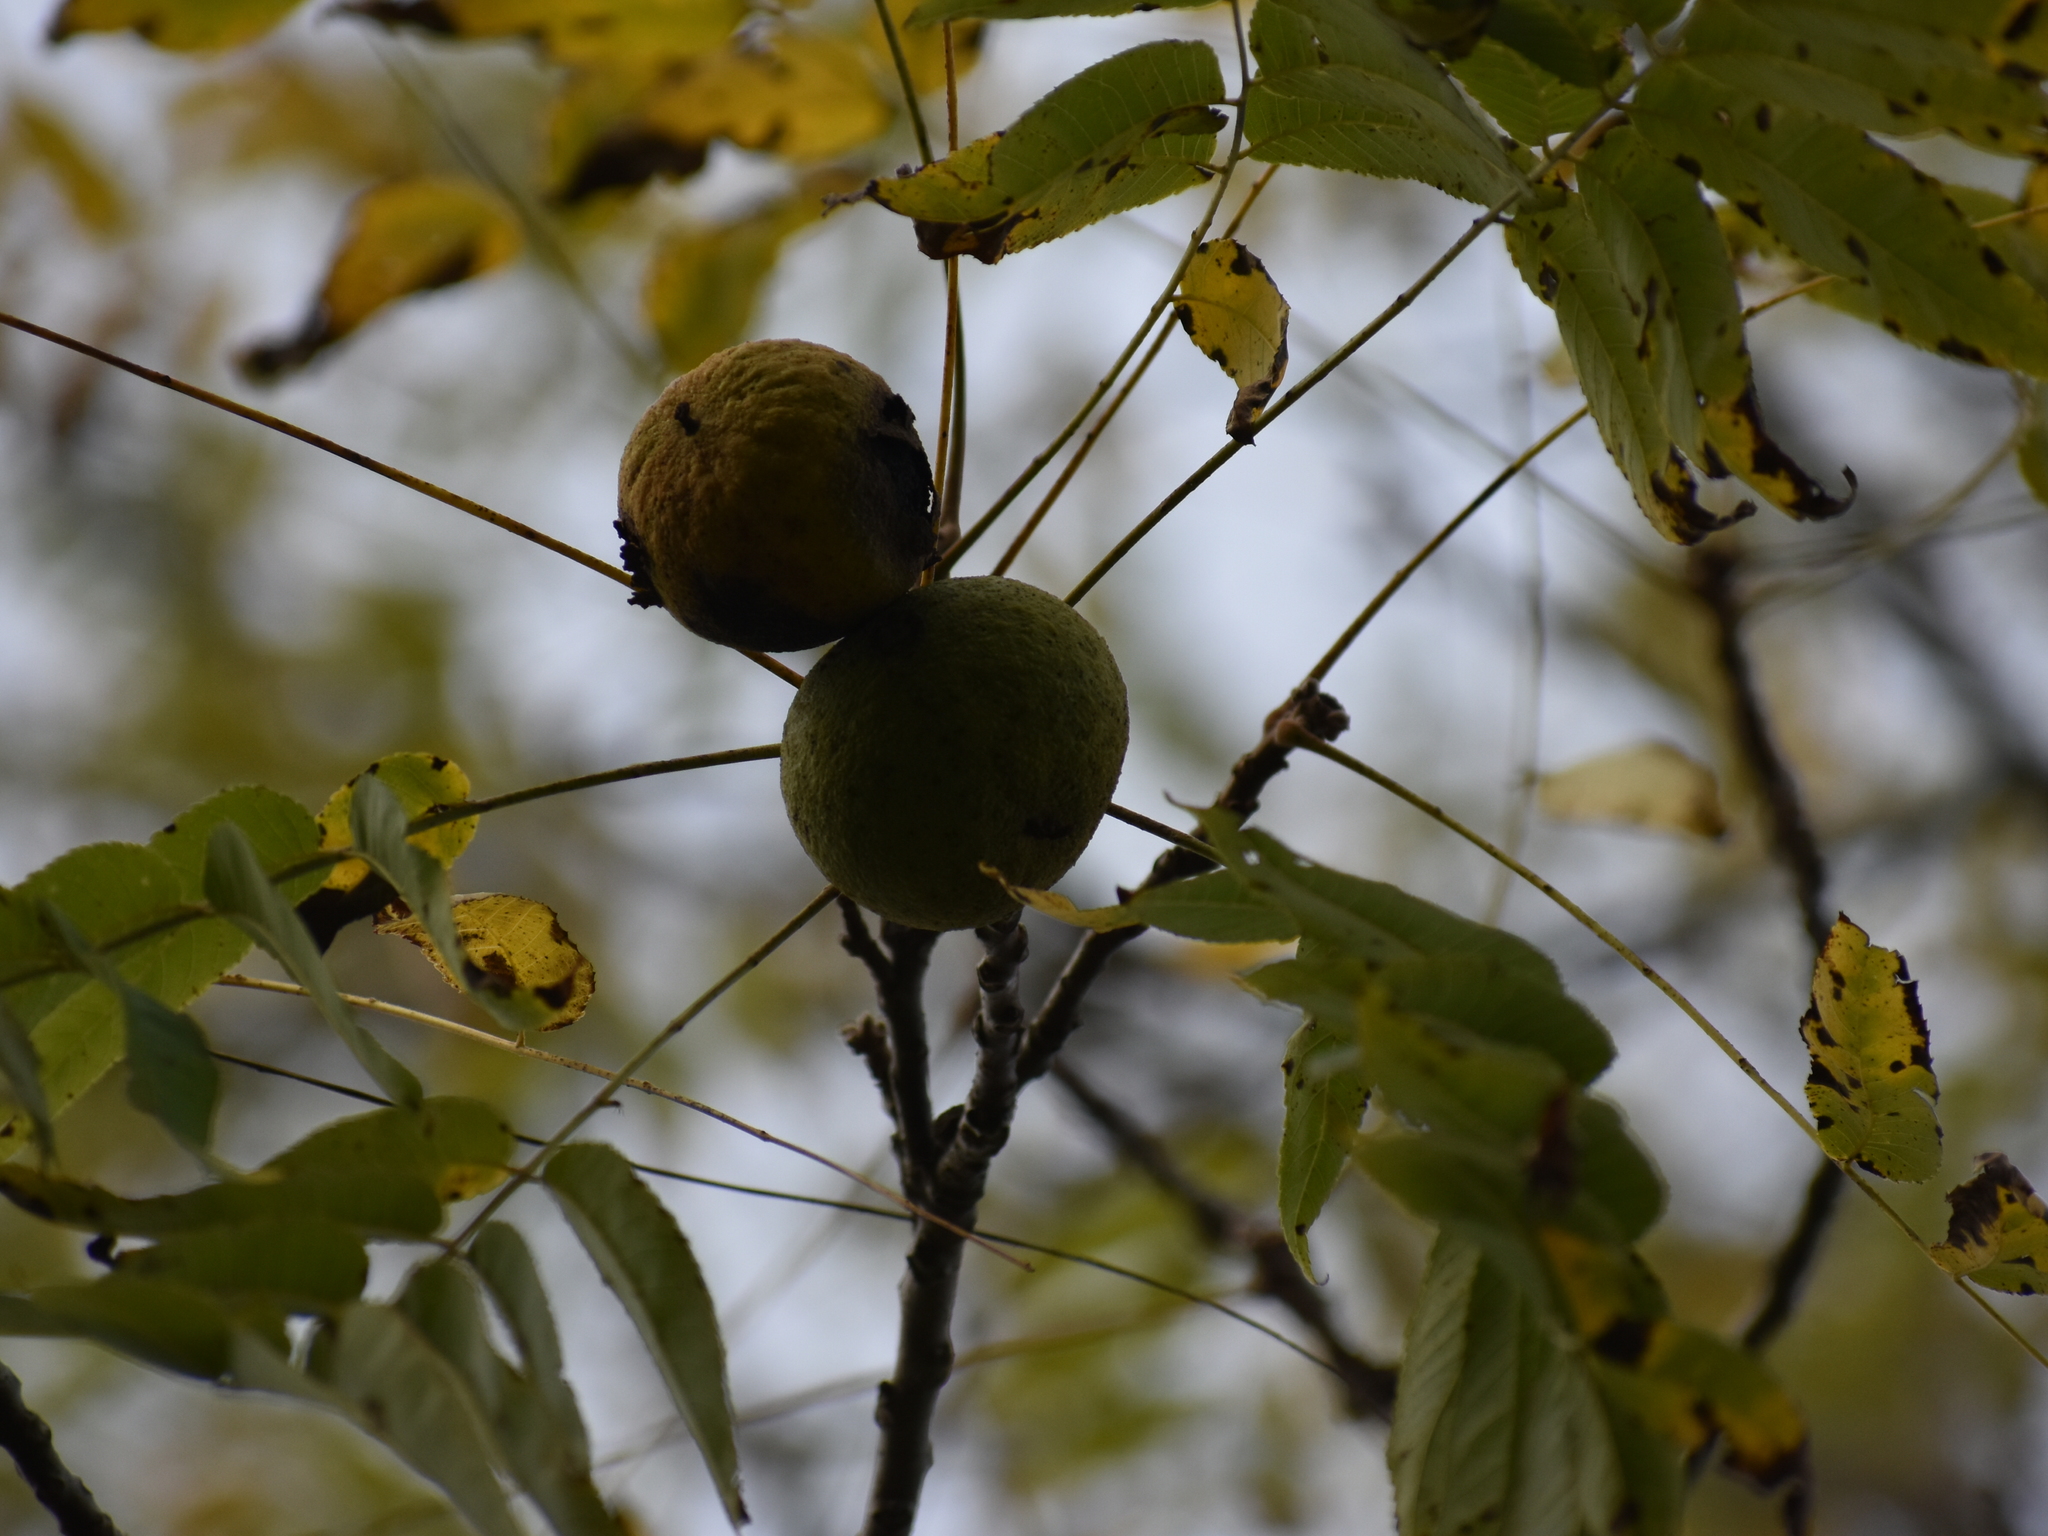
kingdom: Plantae
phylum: Tracheophyta
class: Magnoliopsida
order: Fagales
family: Juglandaceae
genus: Juglans
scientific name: Juglans nigra
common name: Black walnut
